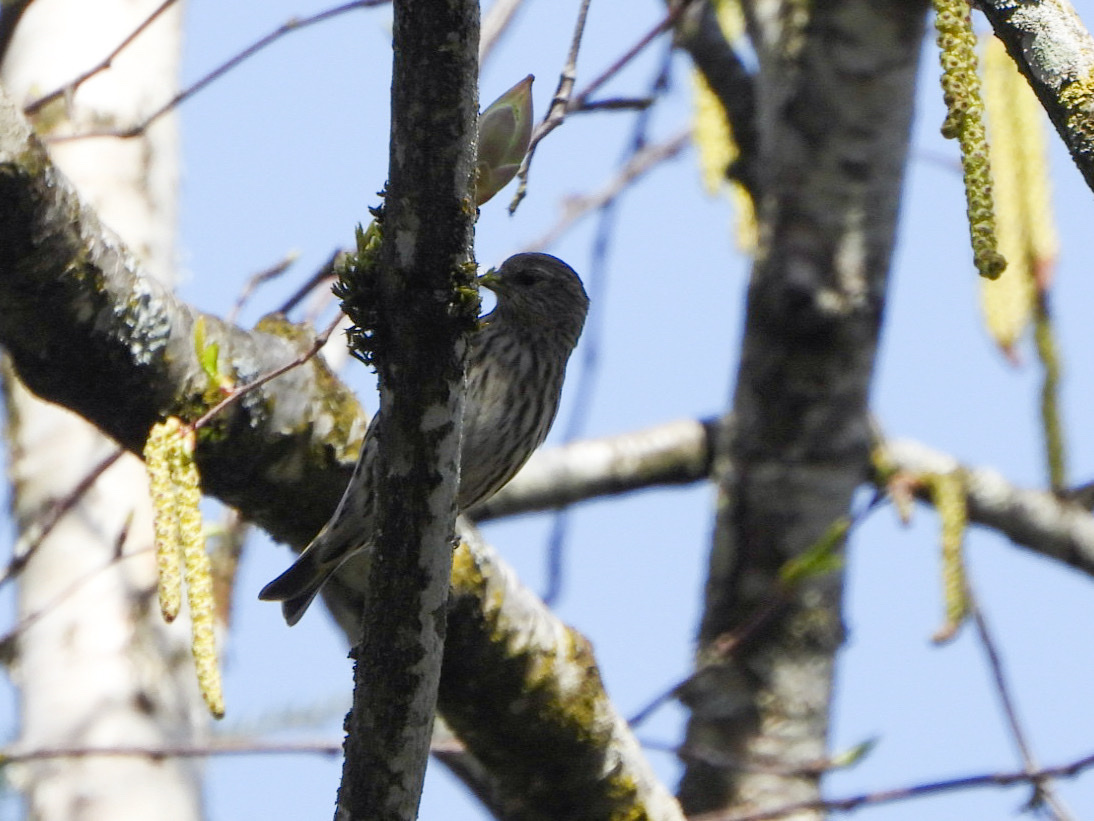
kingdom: Animalia
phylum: Chordata
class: Aves
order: Passeriformes
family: Fringillidae
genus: Spinus
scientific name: Spinus pinus
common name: Pine siskin
